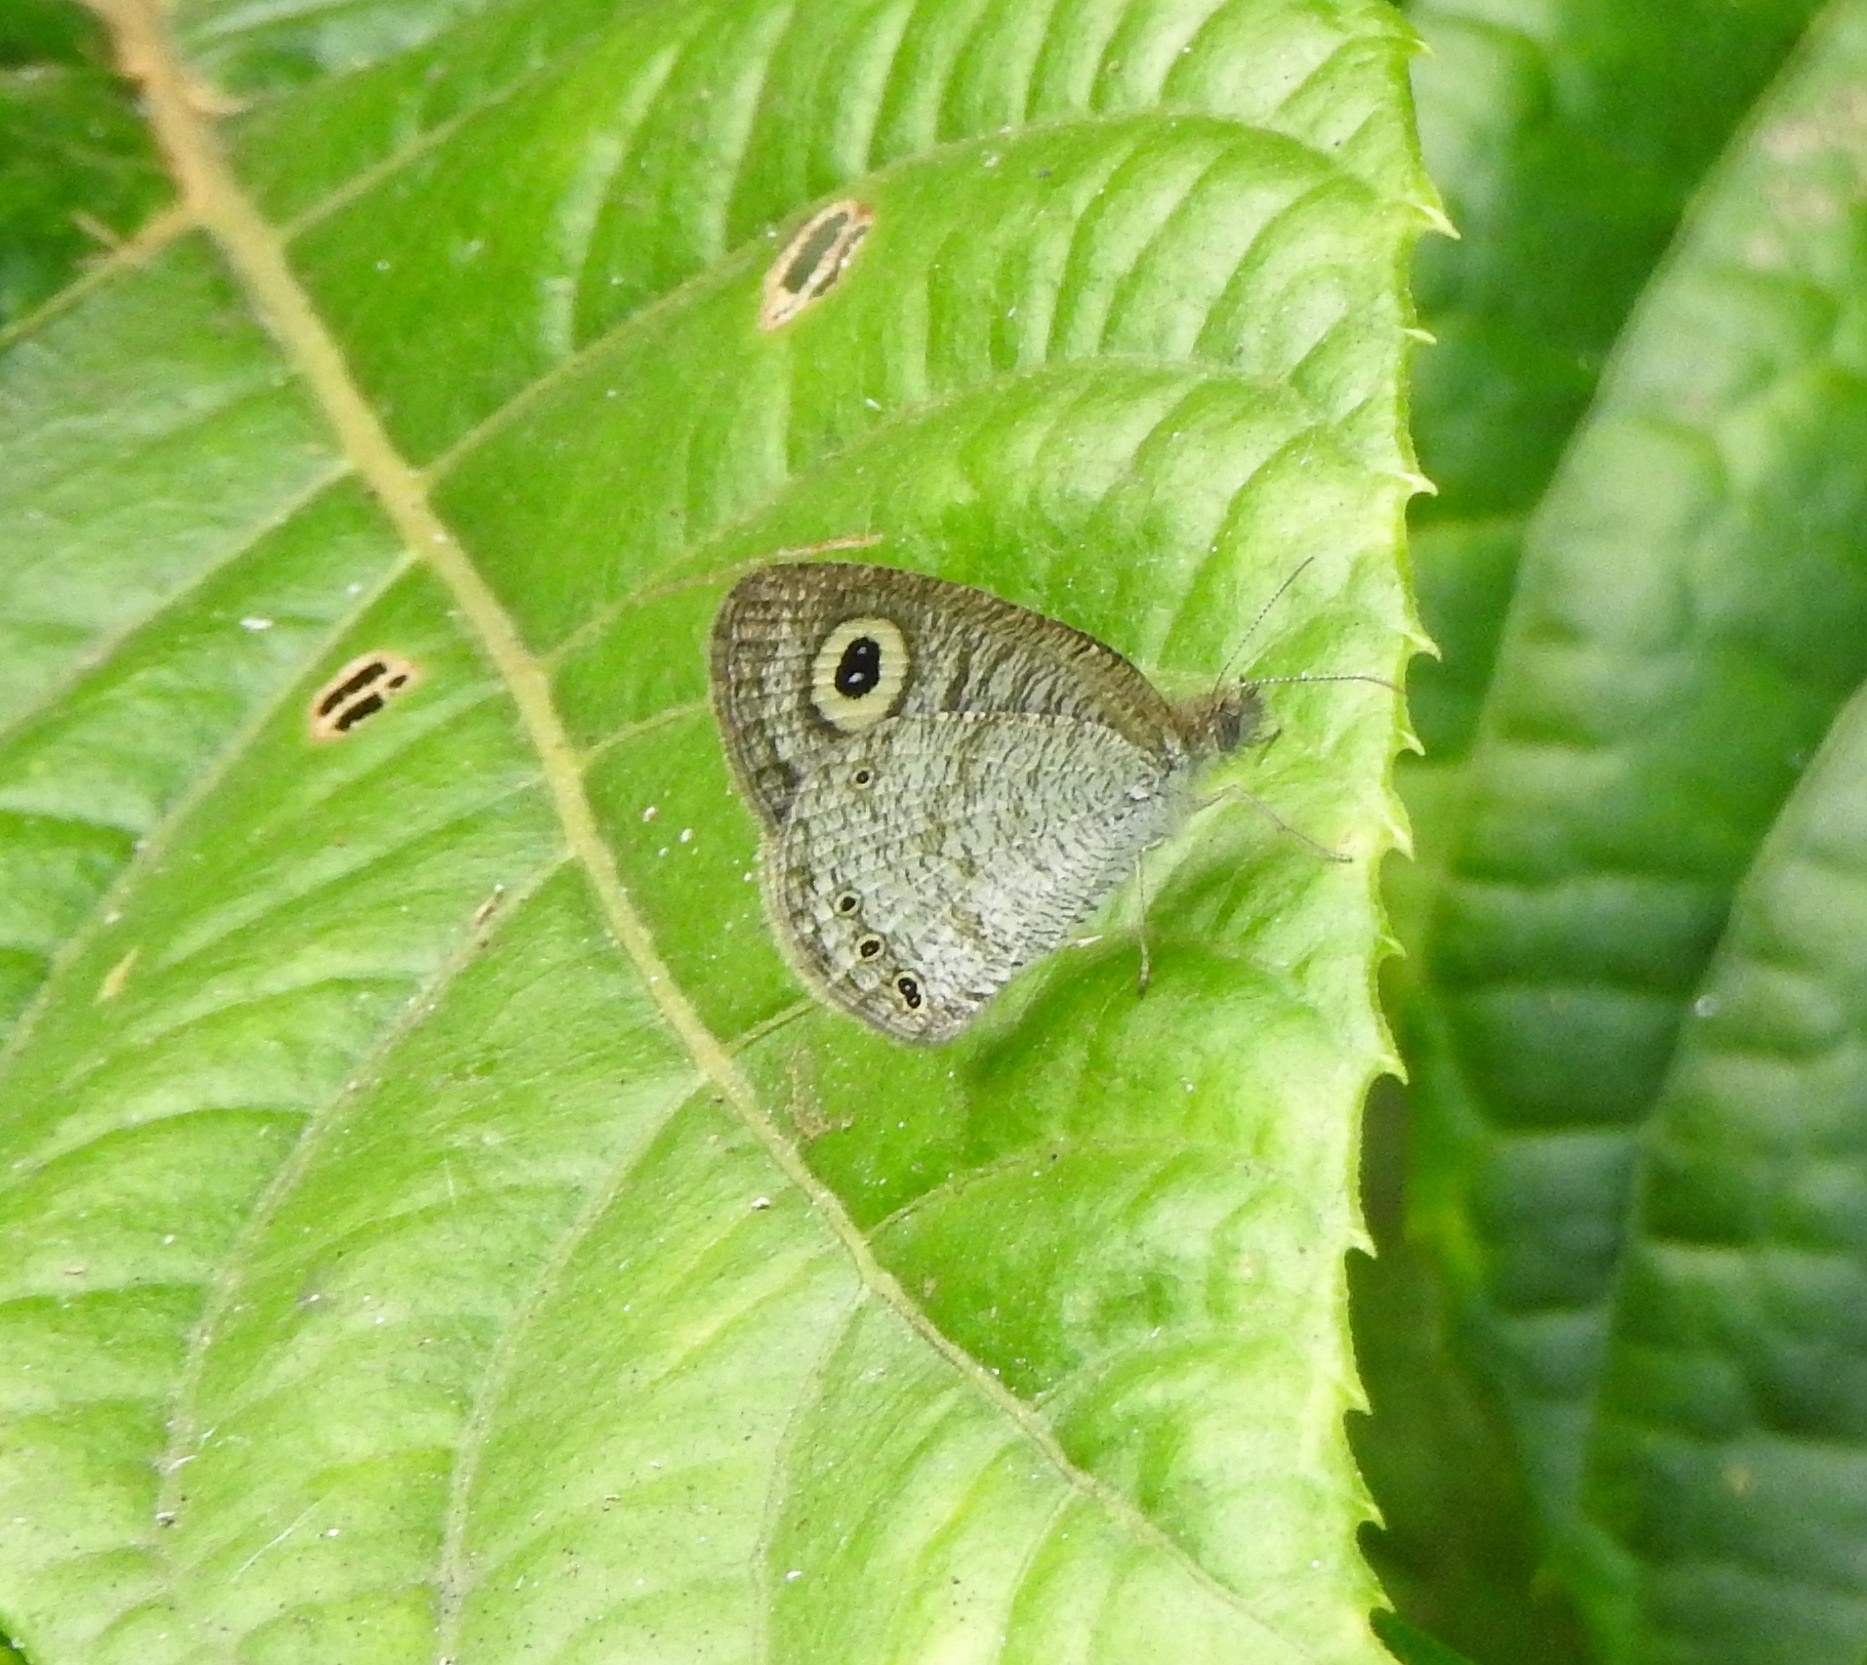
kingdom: Animalia
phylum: Arthropoda
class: Insecta
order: Lepidoptera
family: Nymphalidae
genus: Ypthima
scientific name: Ypthima huebneri
